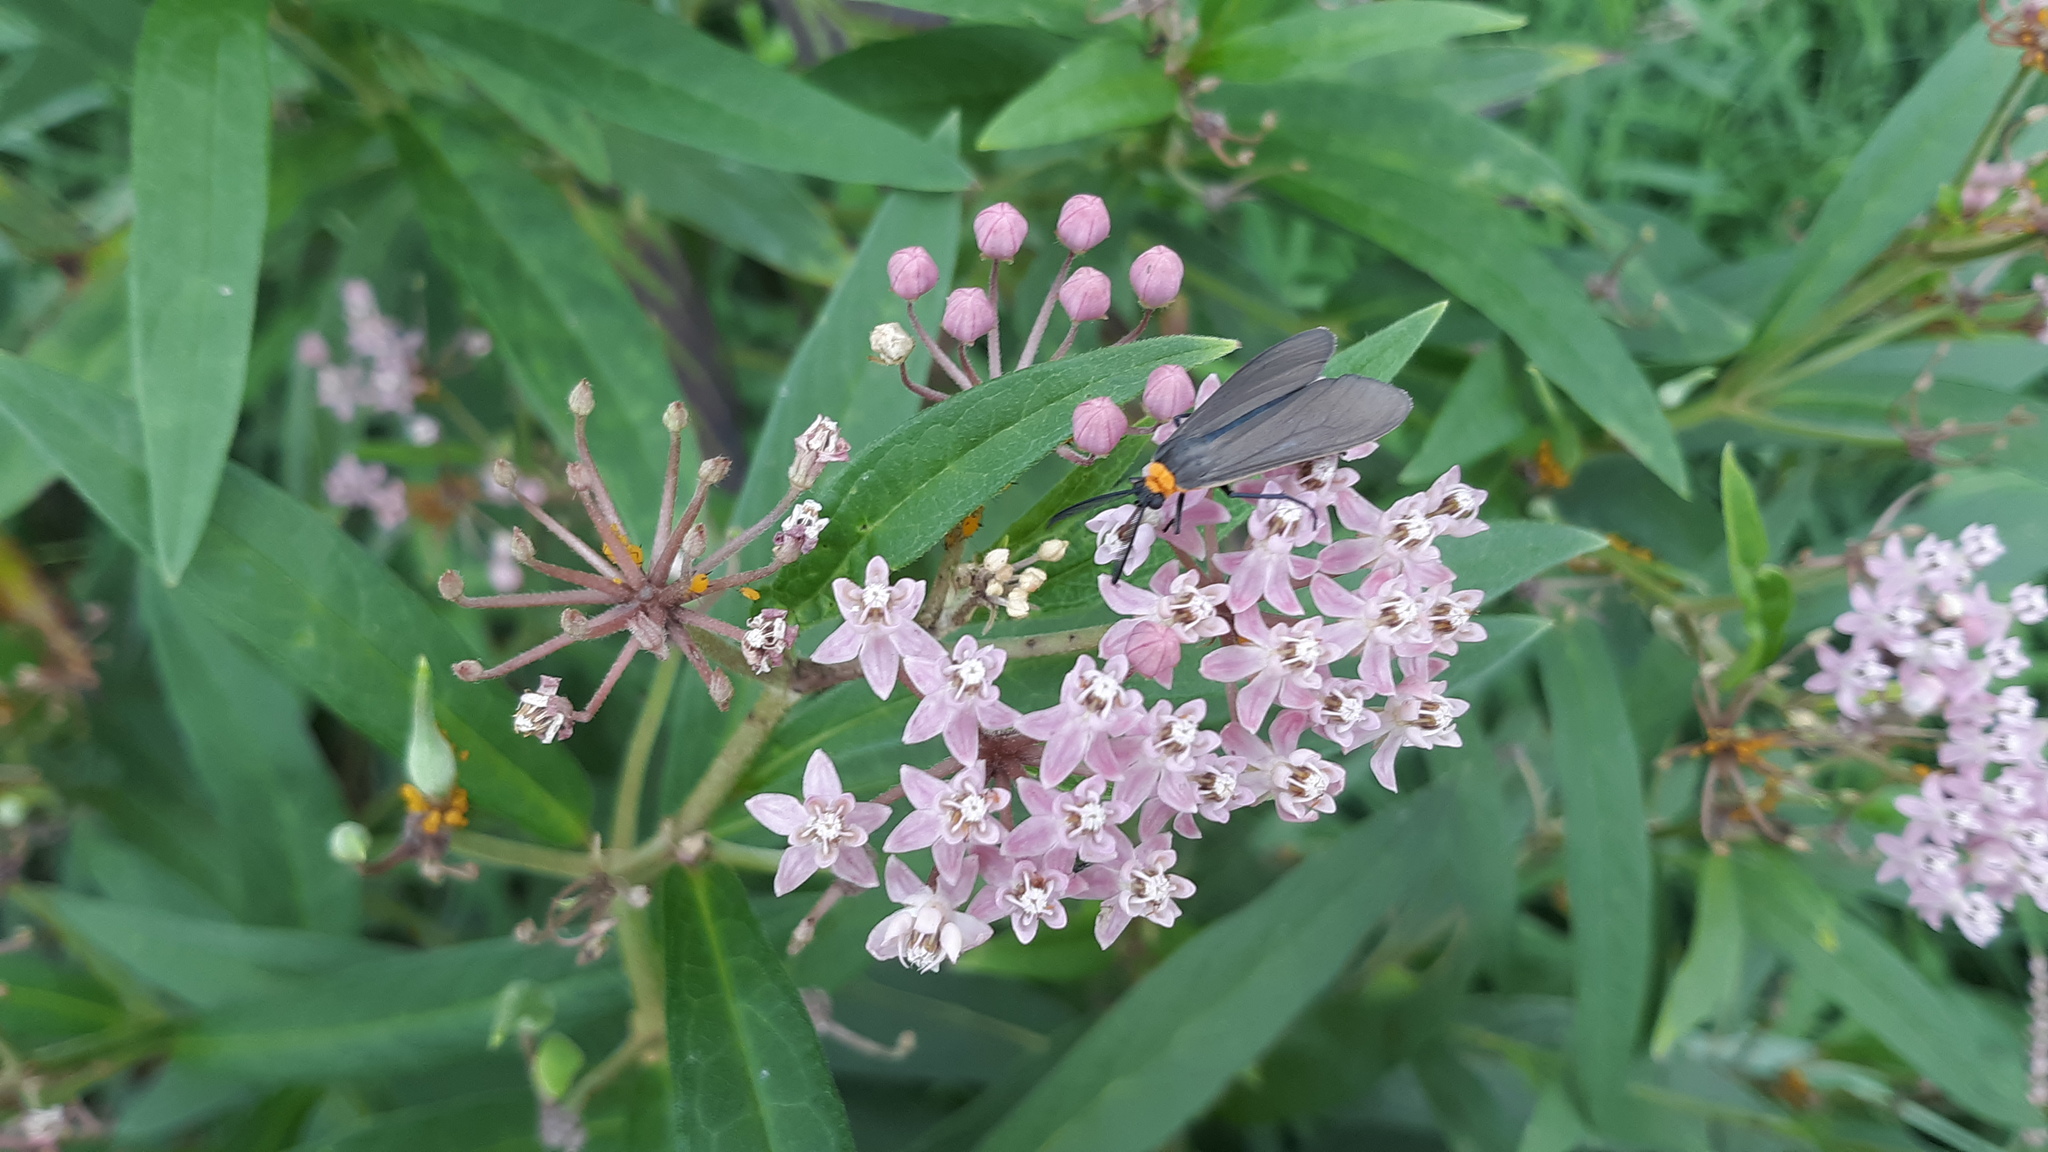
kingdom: Animalia
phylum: Arthropoda
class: Insecta
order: Lepidoptera
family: Erebidae
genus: Cisseps
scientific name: Cisseps fulvicollis
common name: Yellow-collared scape moth
